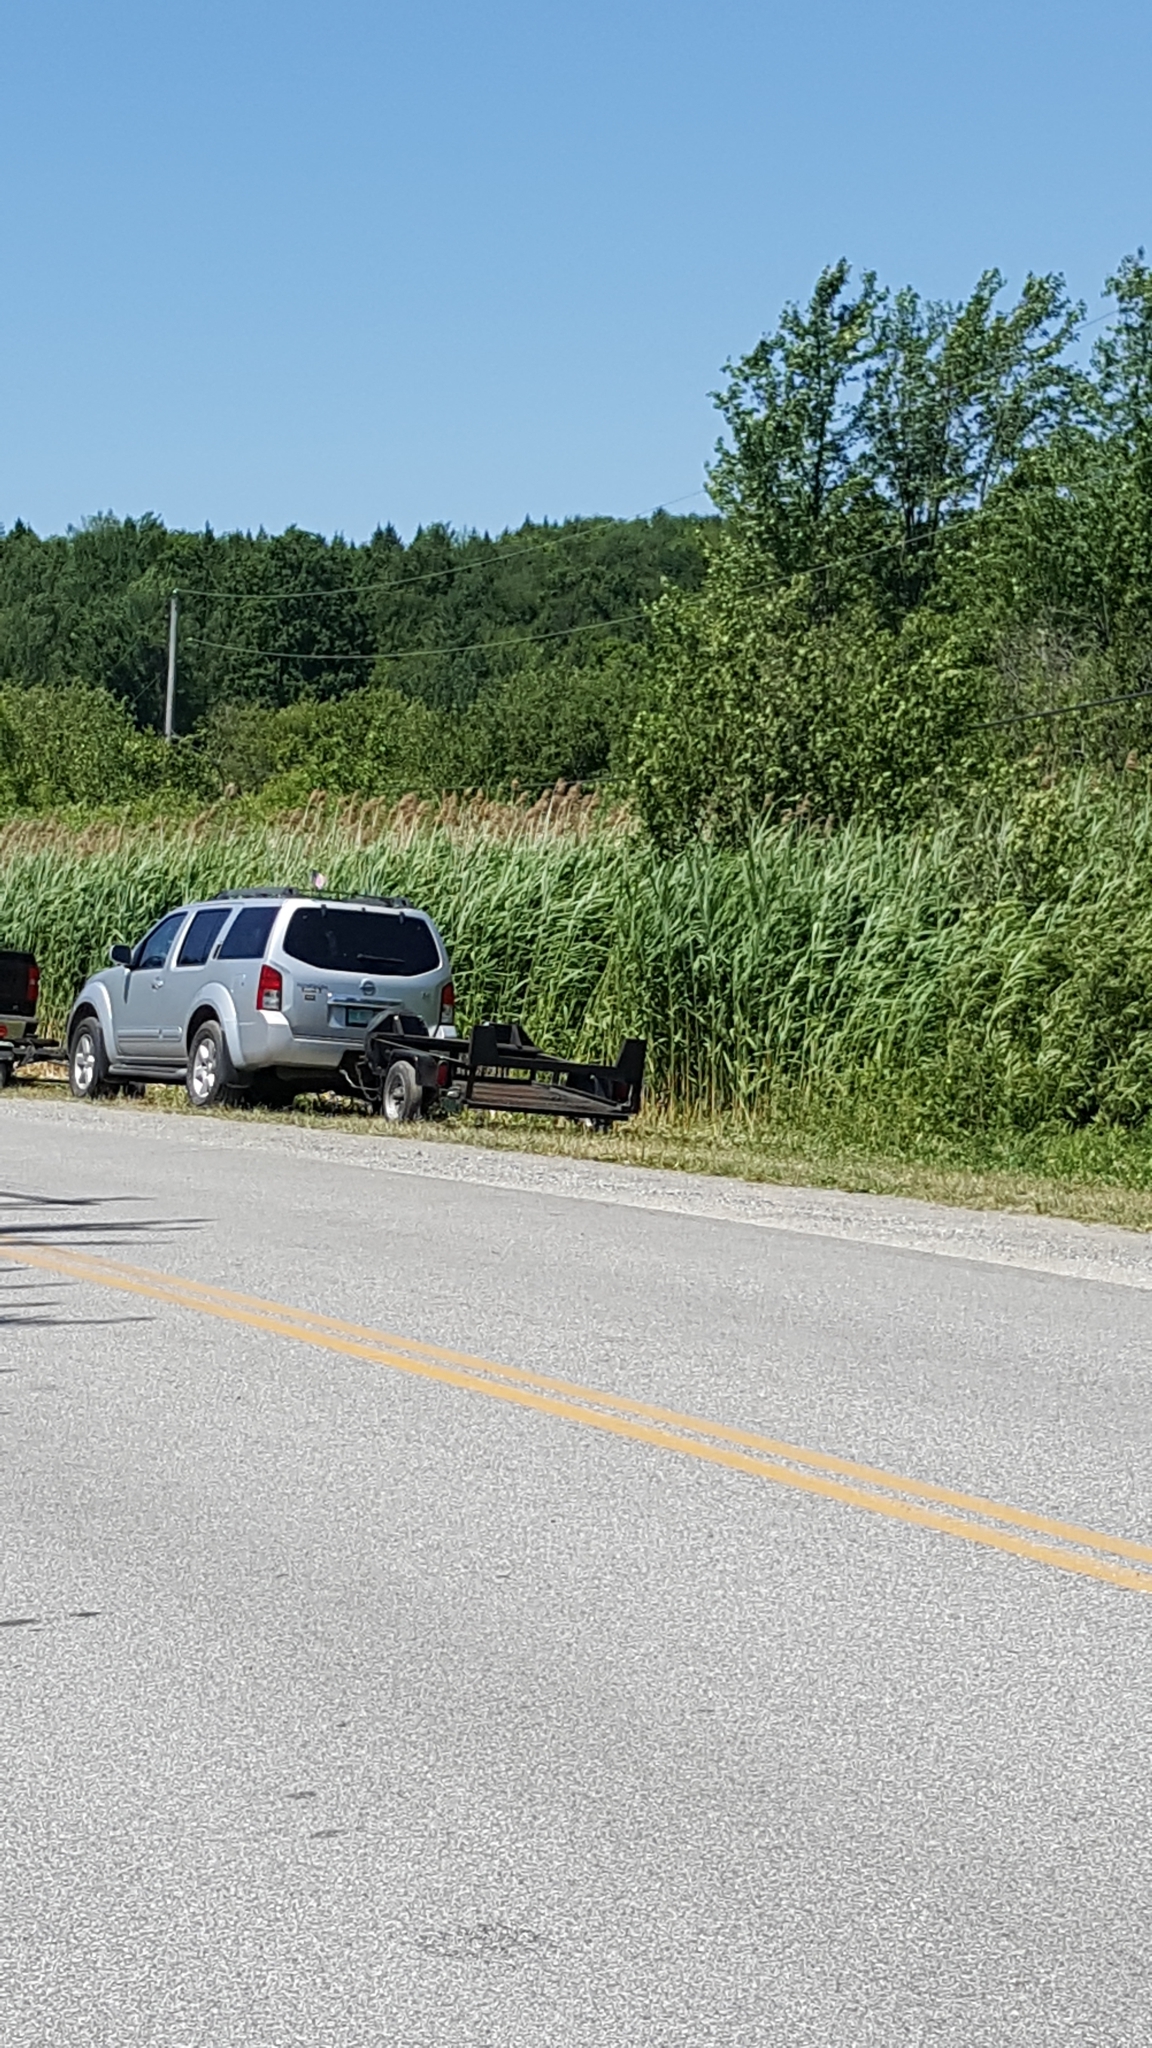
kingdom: Plantae
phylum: Tracheophyta
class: Liliopsida
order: Poales
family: Poaceae
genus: Phragmites
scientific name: Phragmites australis
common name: Common reed
